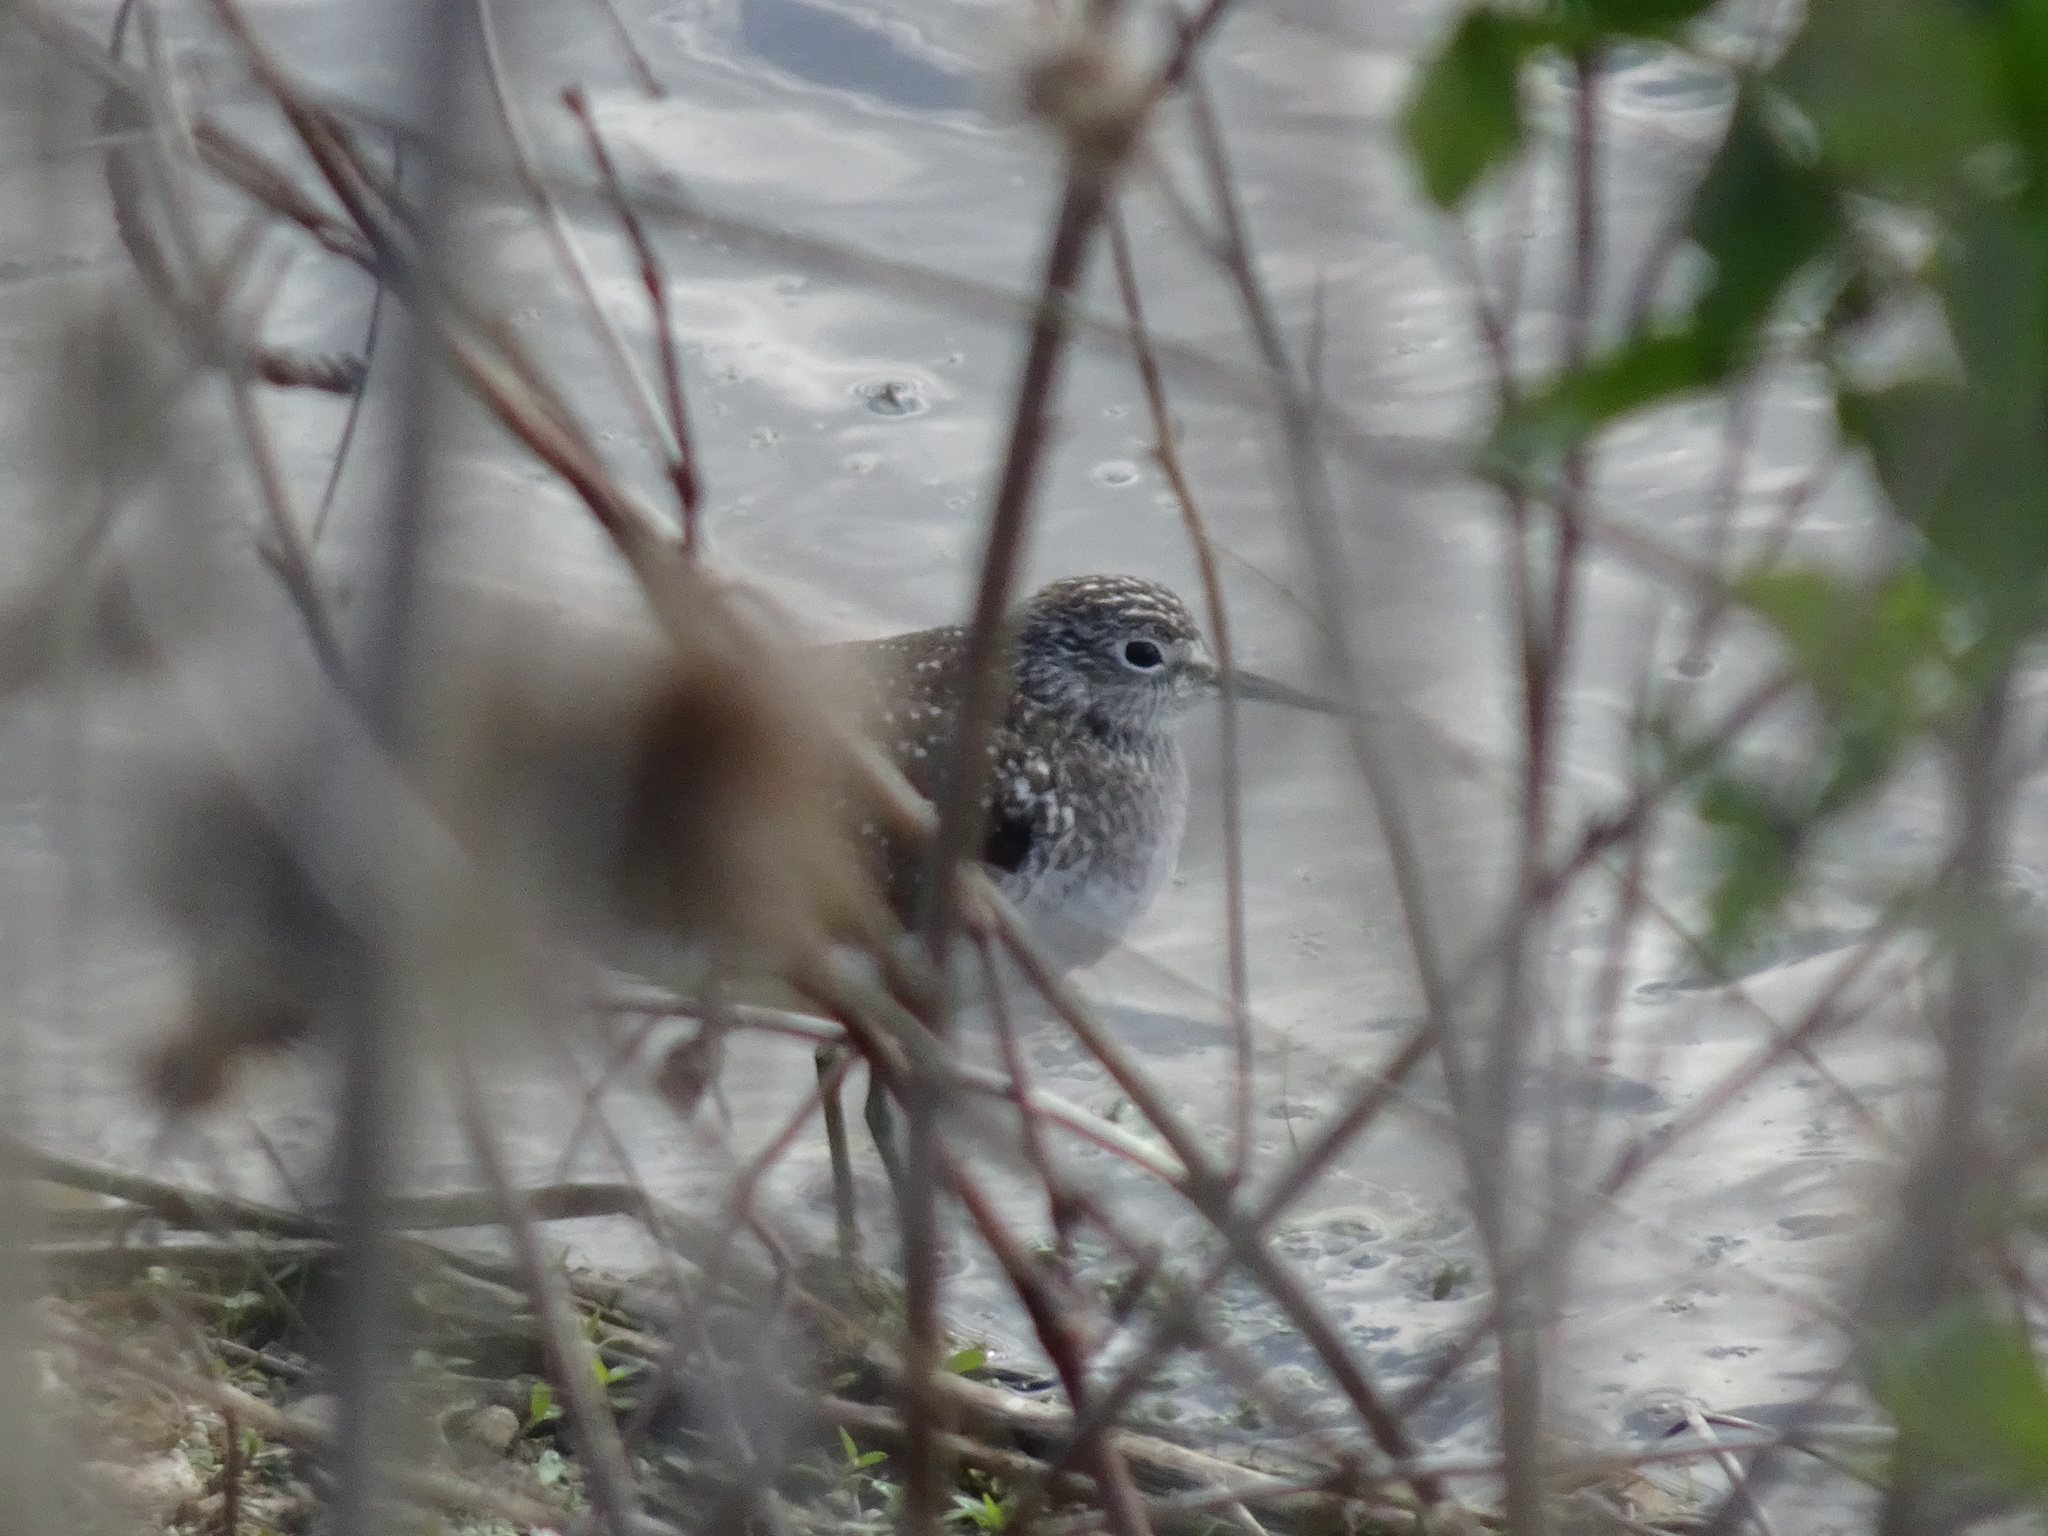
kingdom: Animalia
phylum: Chordata
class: Aves
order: Charadriiformes
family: Scolopacidae
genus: Tringa
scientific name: Tringa solitaria
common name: Solitary sandpiper
